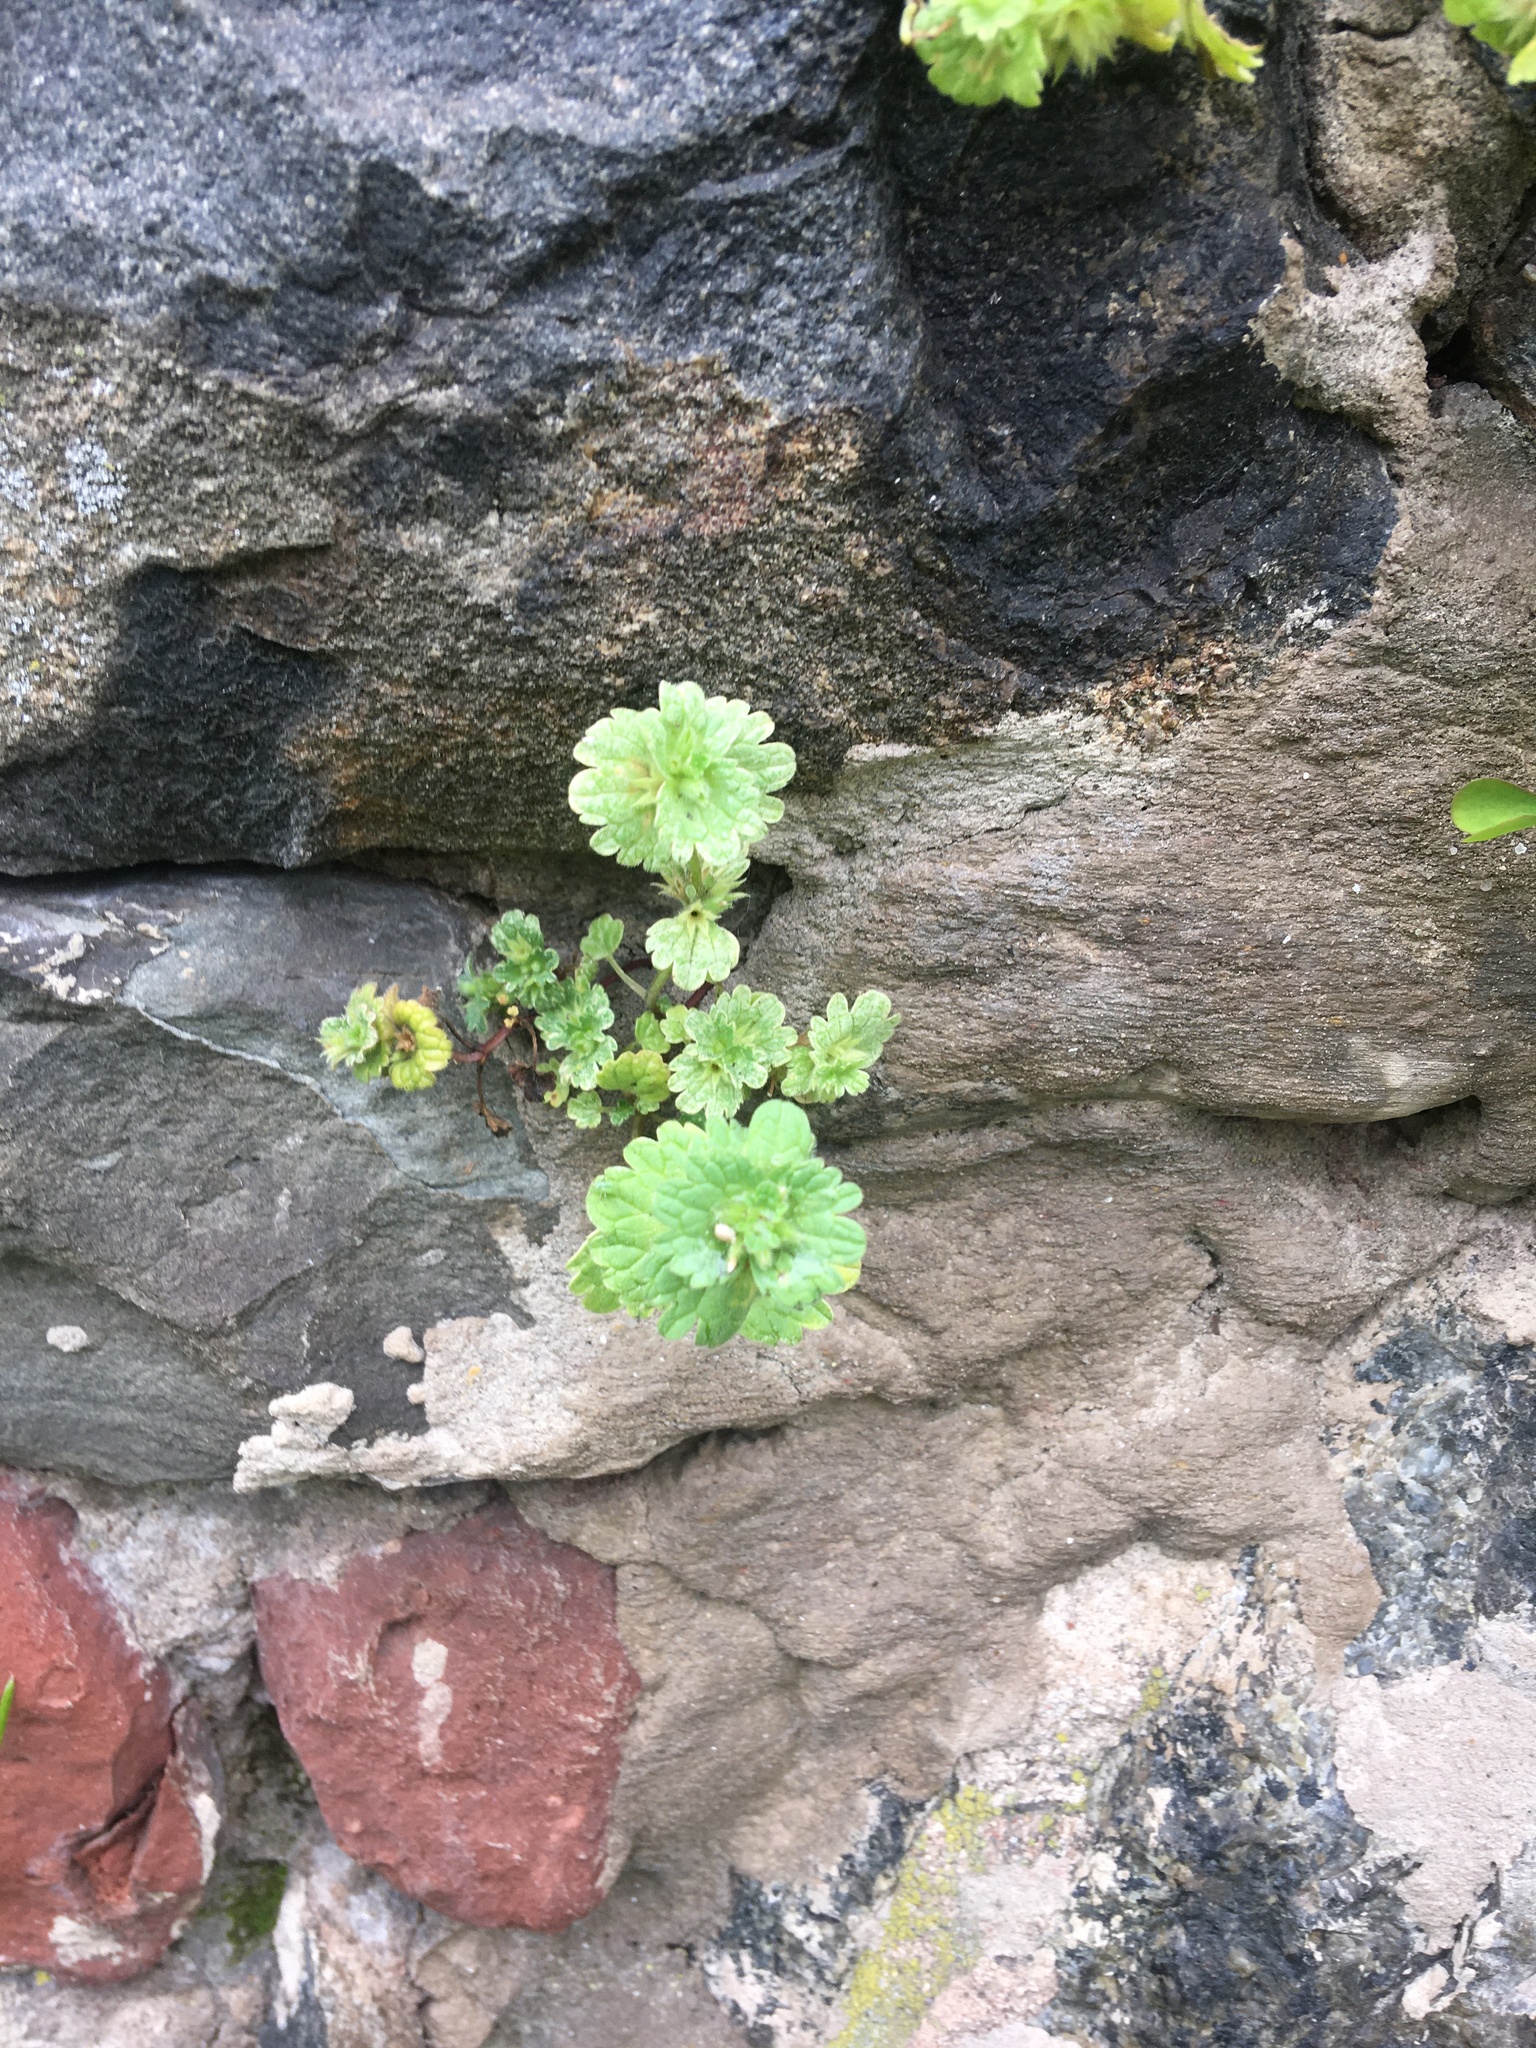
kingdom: Plantae
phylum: Tracheophyta
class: Magnoliopsida
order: Lamiales
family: Lamiaceae
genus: Lamium
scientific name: Lamium amplexicaule
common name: Henbit dead-nettle
